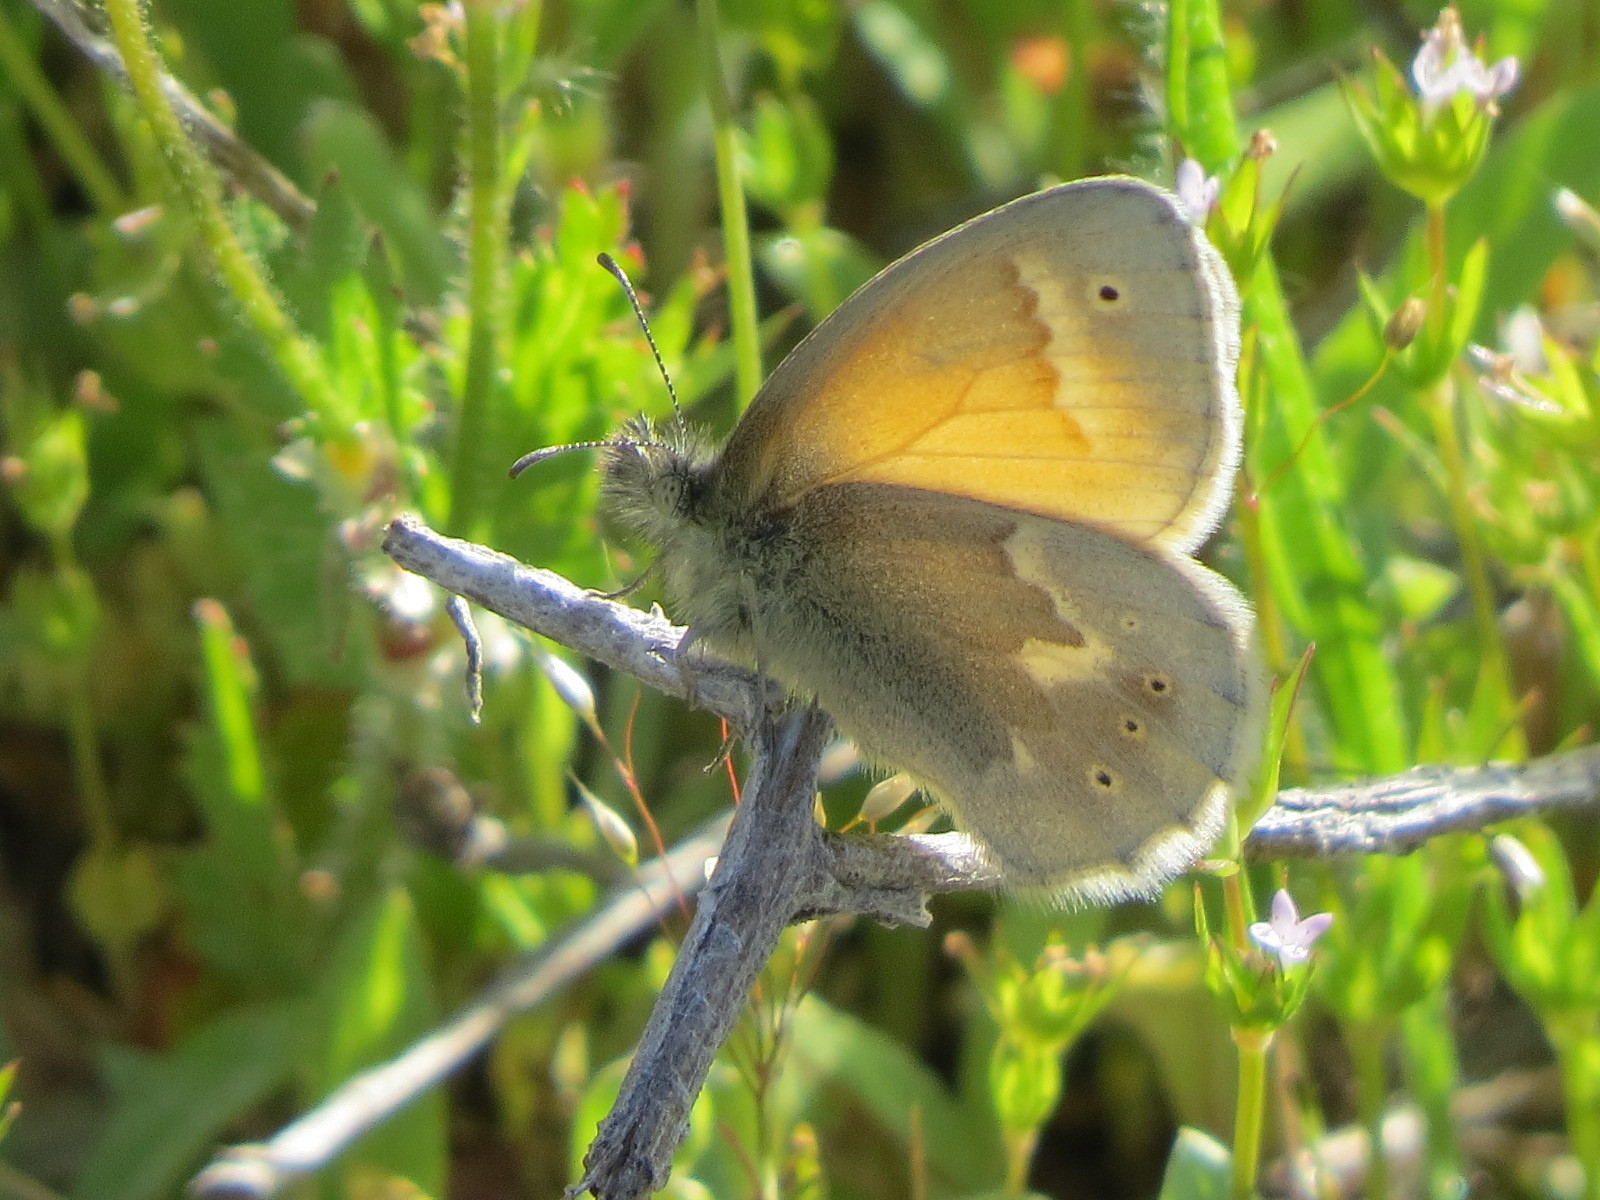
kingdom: Animalia
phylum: Arthropoda
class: Insecta
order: Lepidoptera
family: Nymphalidae
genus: Coenonympha
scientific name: Coenonympha california
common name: Common ringlet
